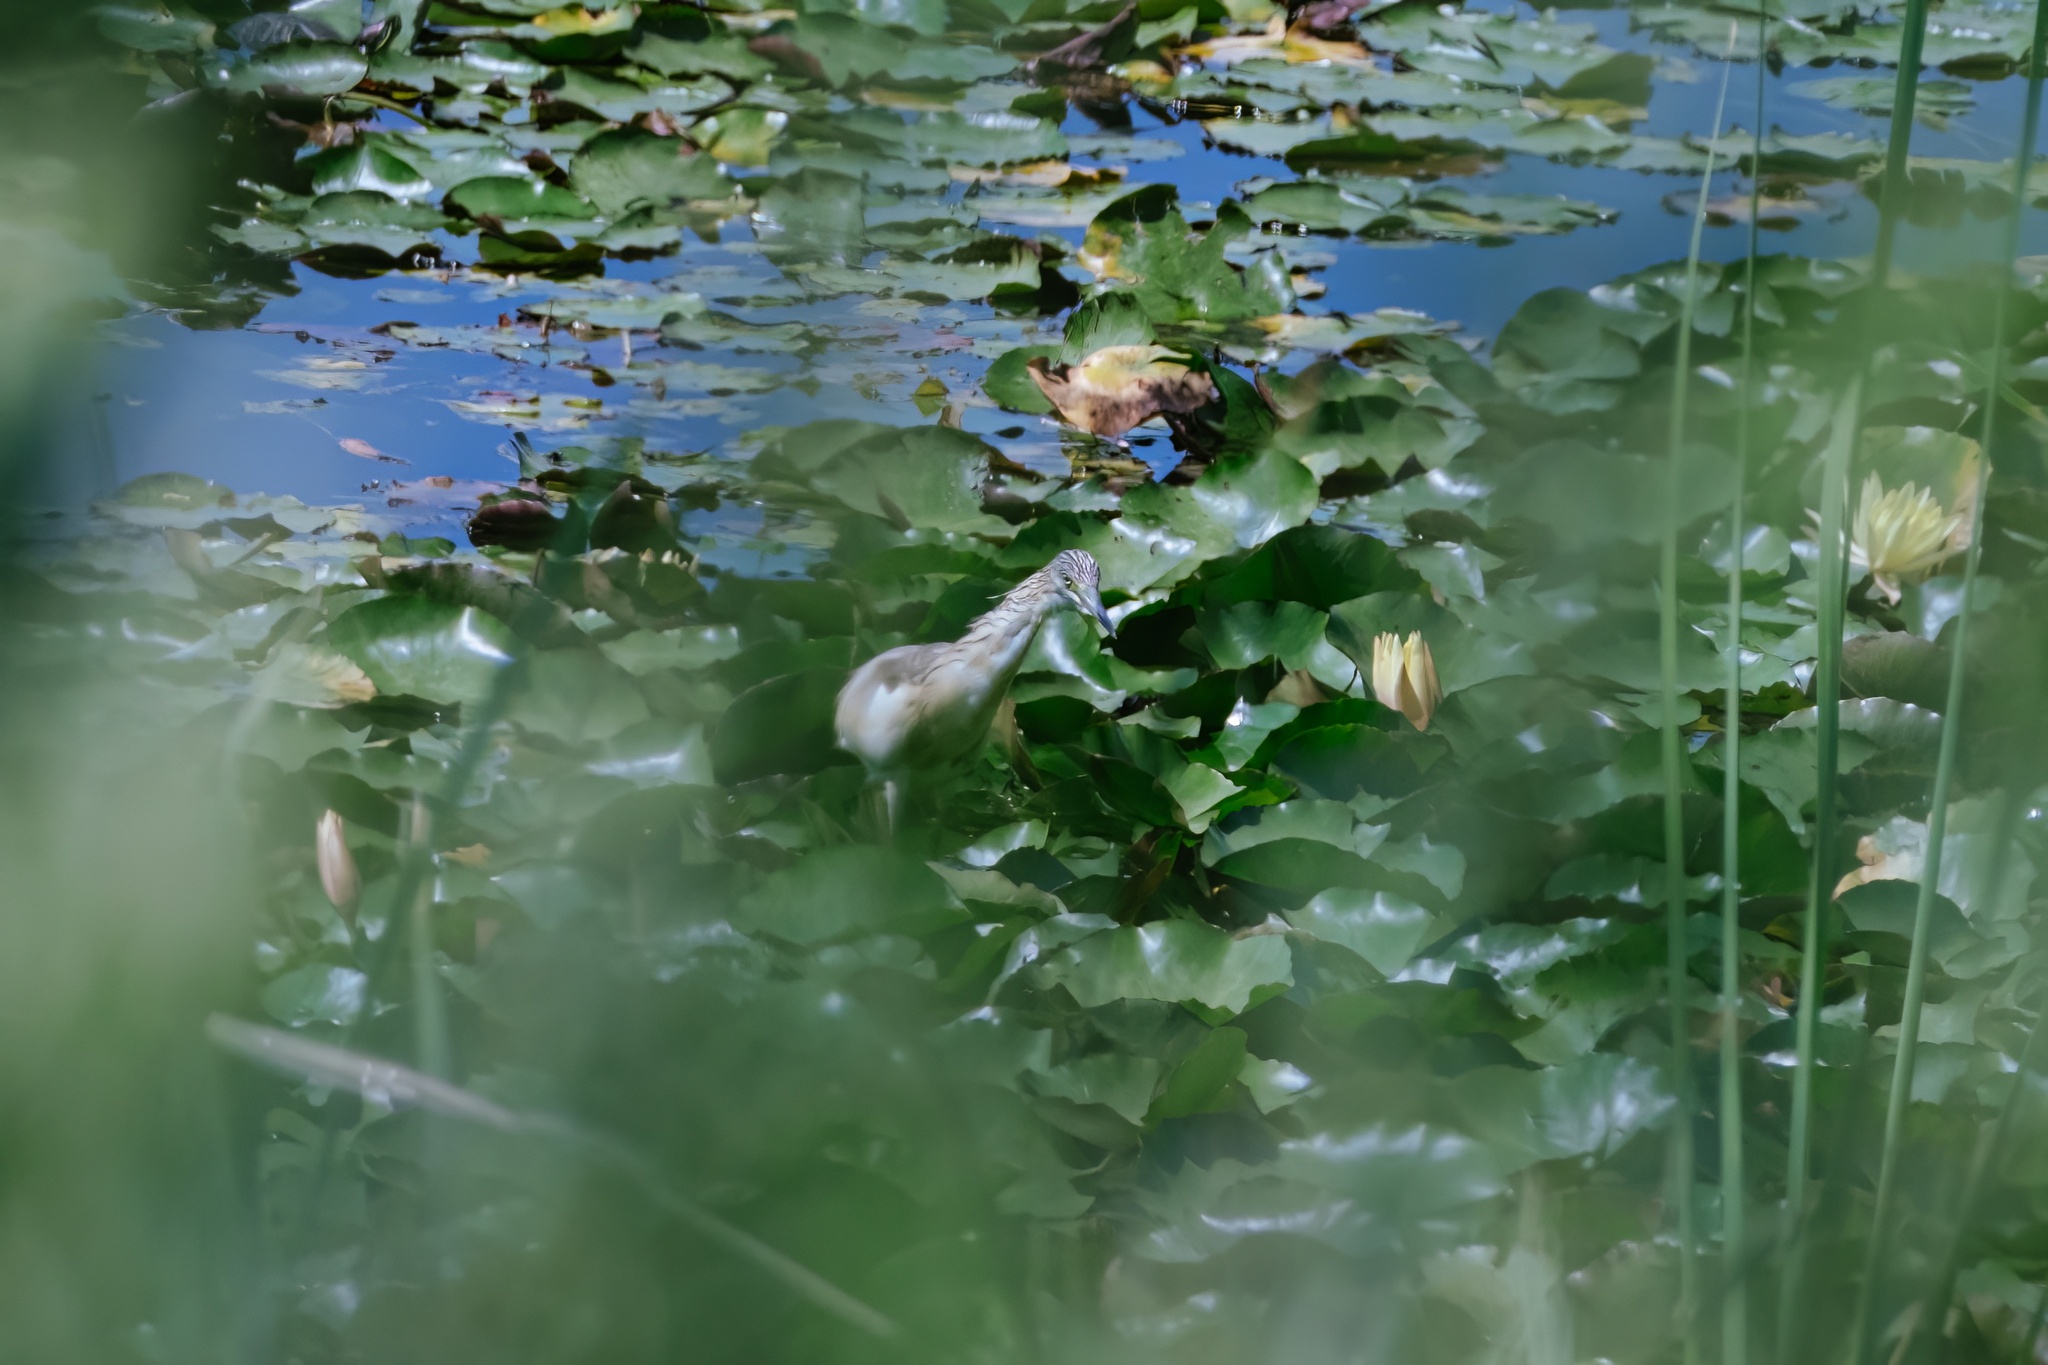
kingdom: Animalia
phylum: Chordata
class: Aves
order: Pelecaniformes
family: Ardeidae
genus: Ardeola
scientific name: Ardeola ralloides
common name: Squacco heron
